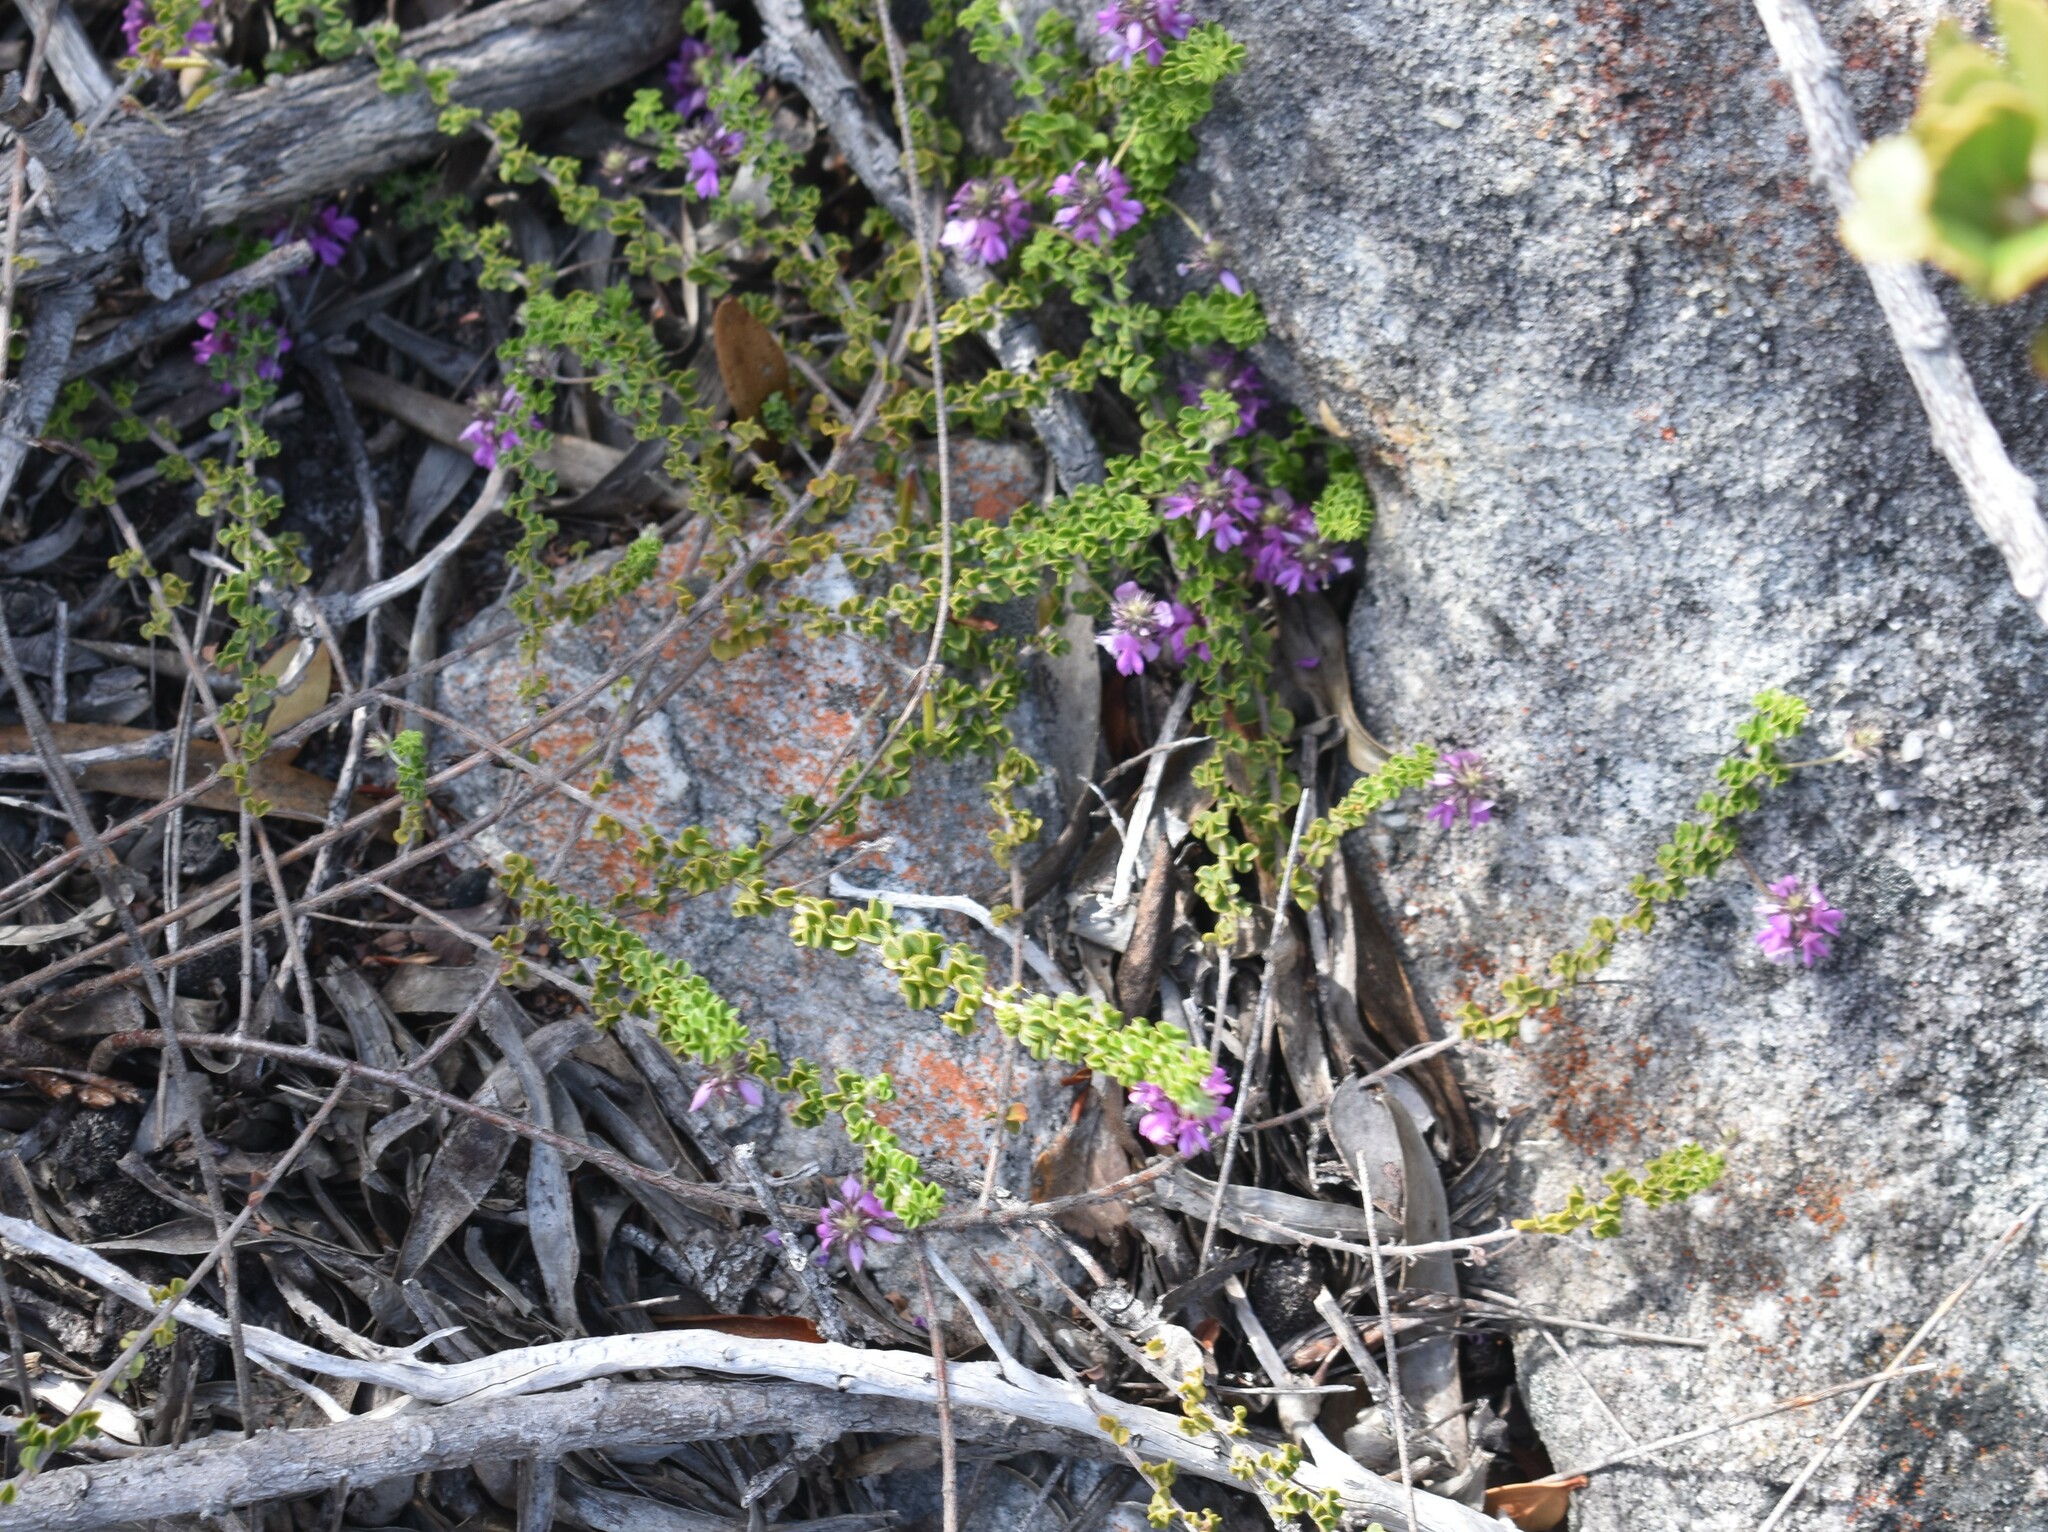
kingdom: Plantae
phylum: Tracheophyta
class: Magnoliopsida
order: Fabales
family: Fabaceae
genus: Indigofera
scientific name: Indigofera alopecuroides
